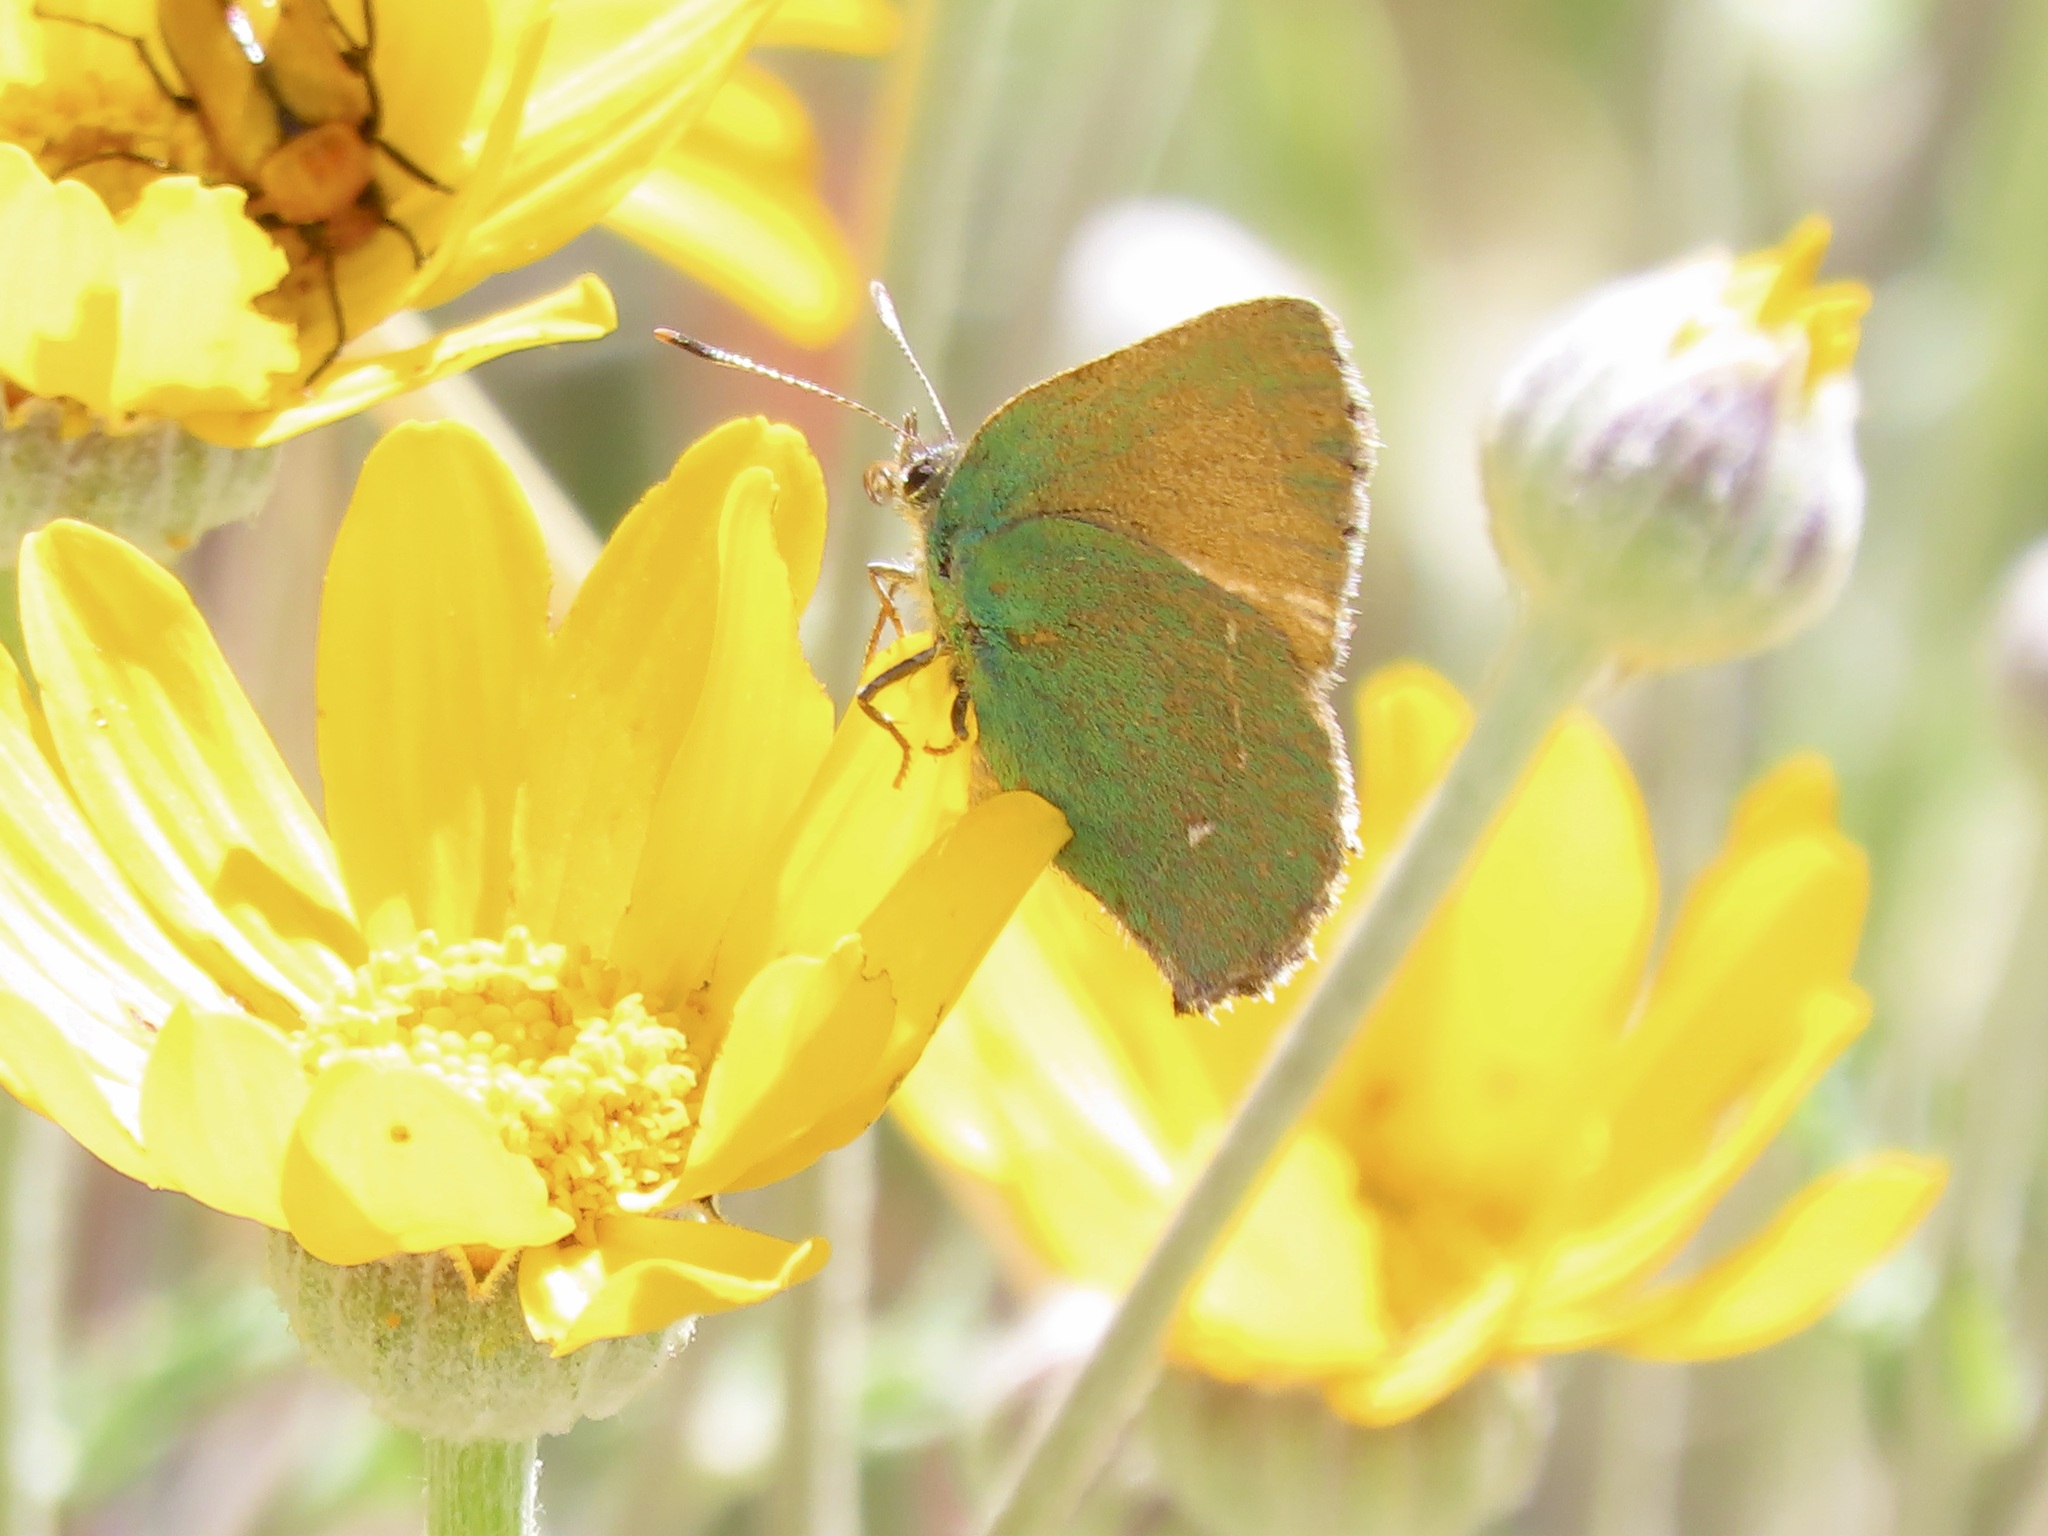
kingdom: Animalia
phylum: Arthropoda
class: Insecta
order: Lepidoptera
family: Lycaenidae
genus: Callophrys
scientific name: Callophrys dumetorum
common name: Bramble hairstreak
